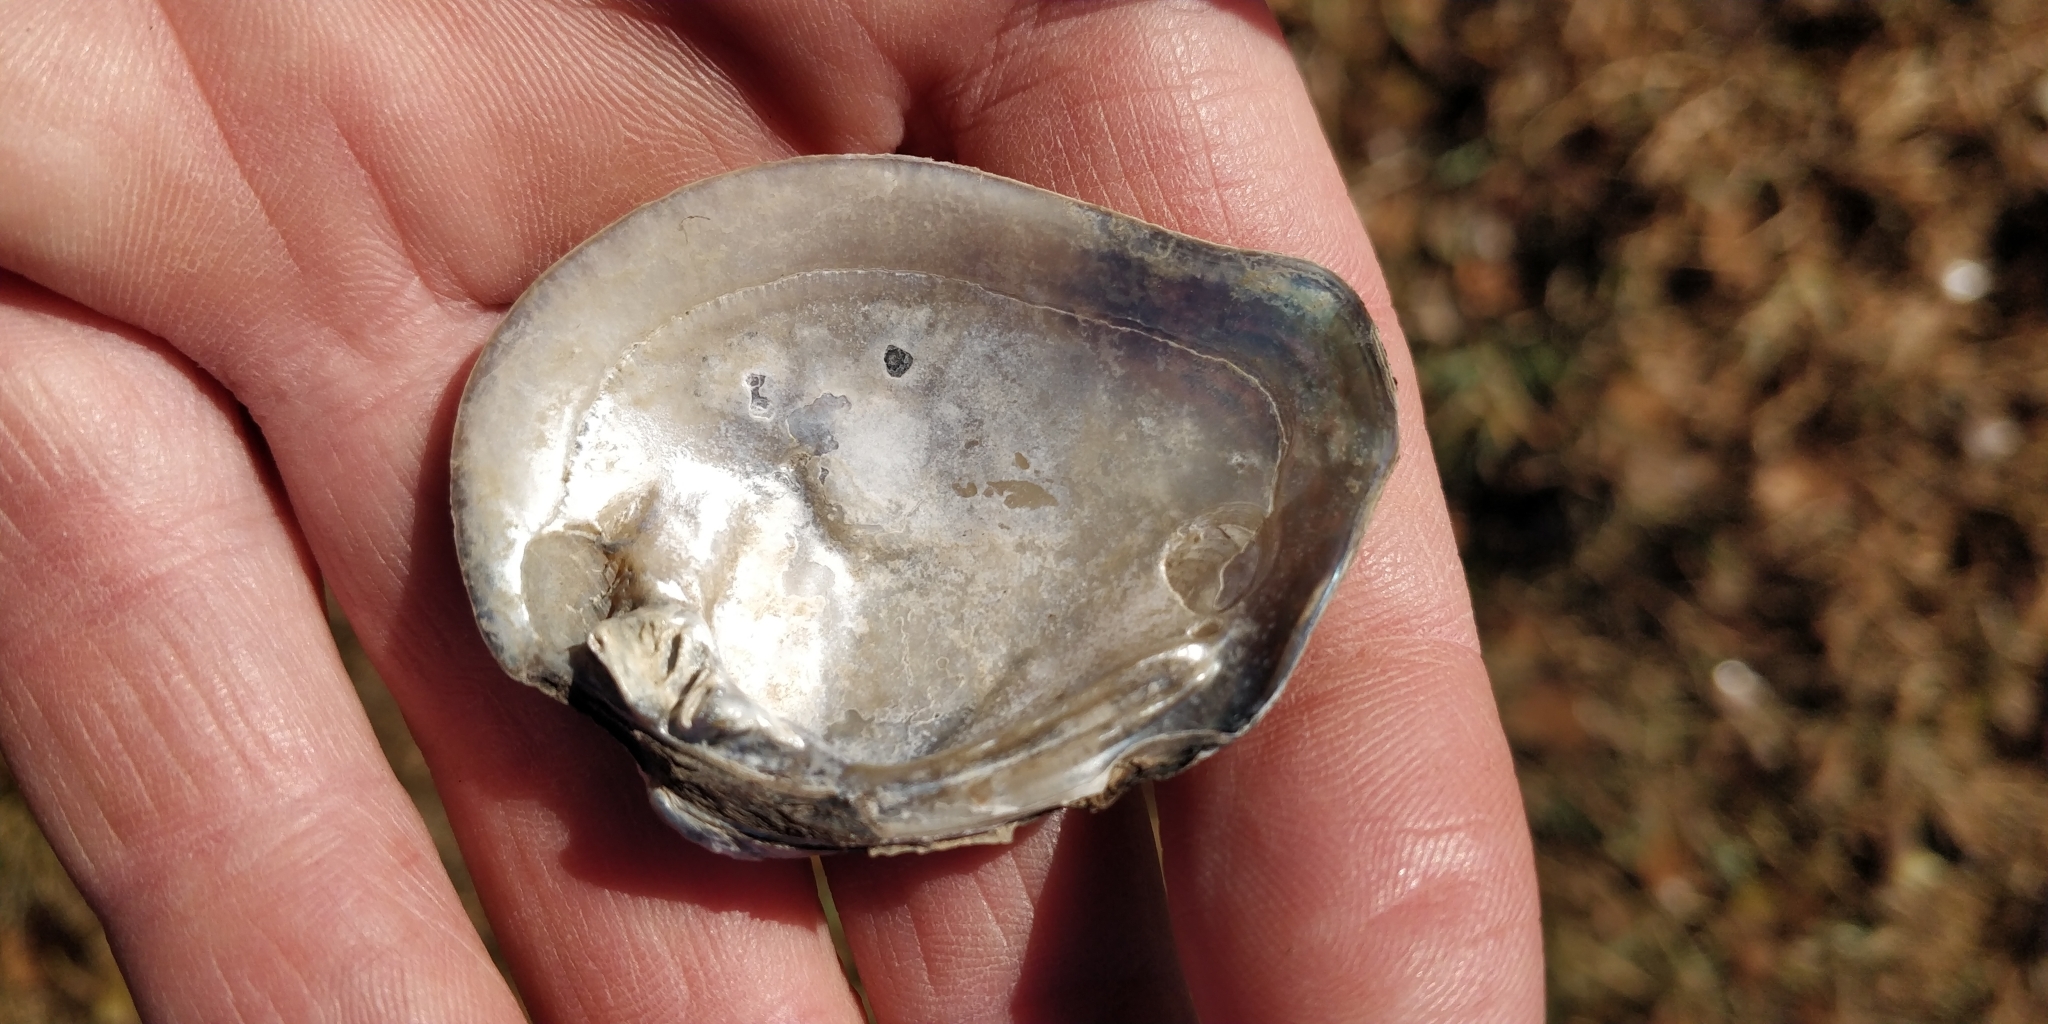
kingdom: Animalia
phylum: Mollusca
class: Bivalvia
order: Unionida
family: Unionidae
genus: Fusconaia
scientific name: Fusconaia flava
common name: Wabash pigtoe
